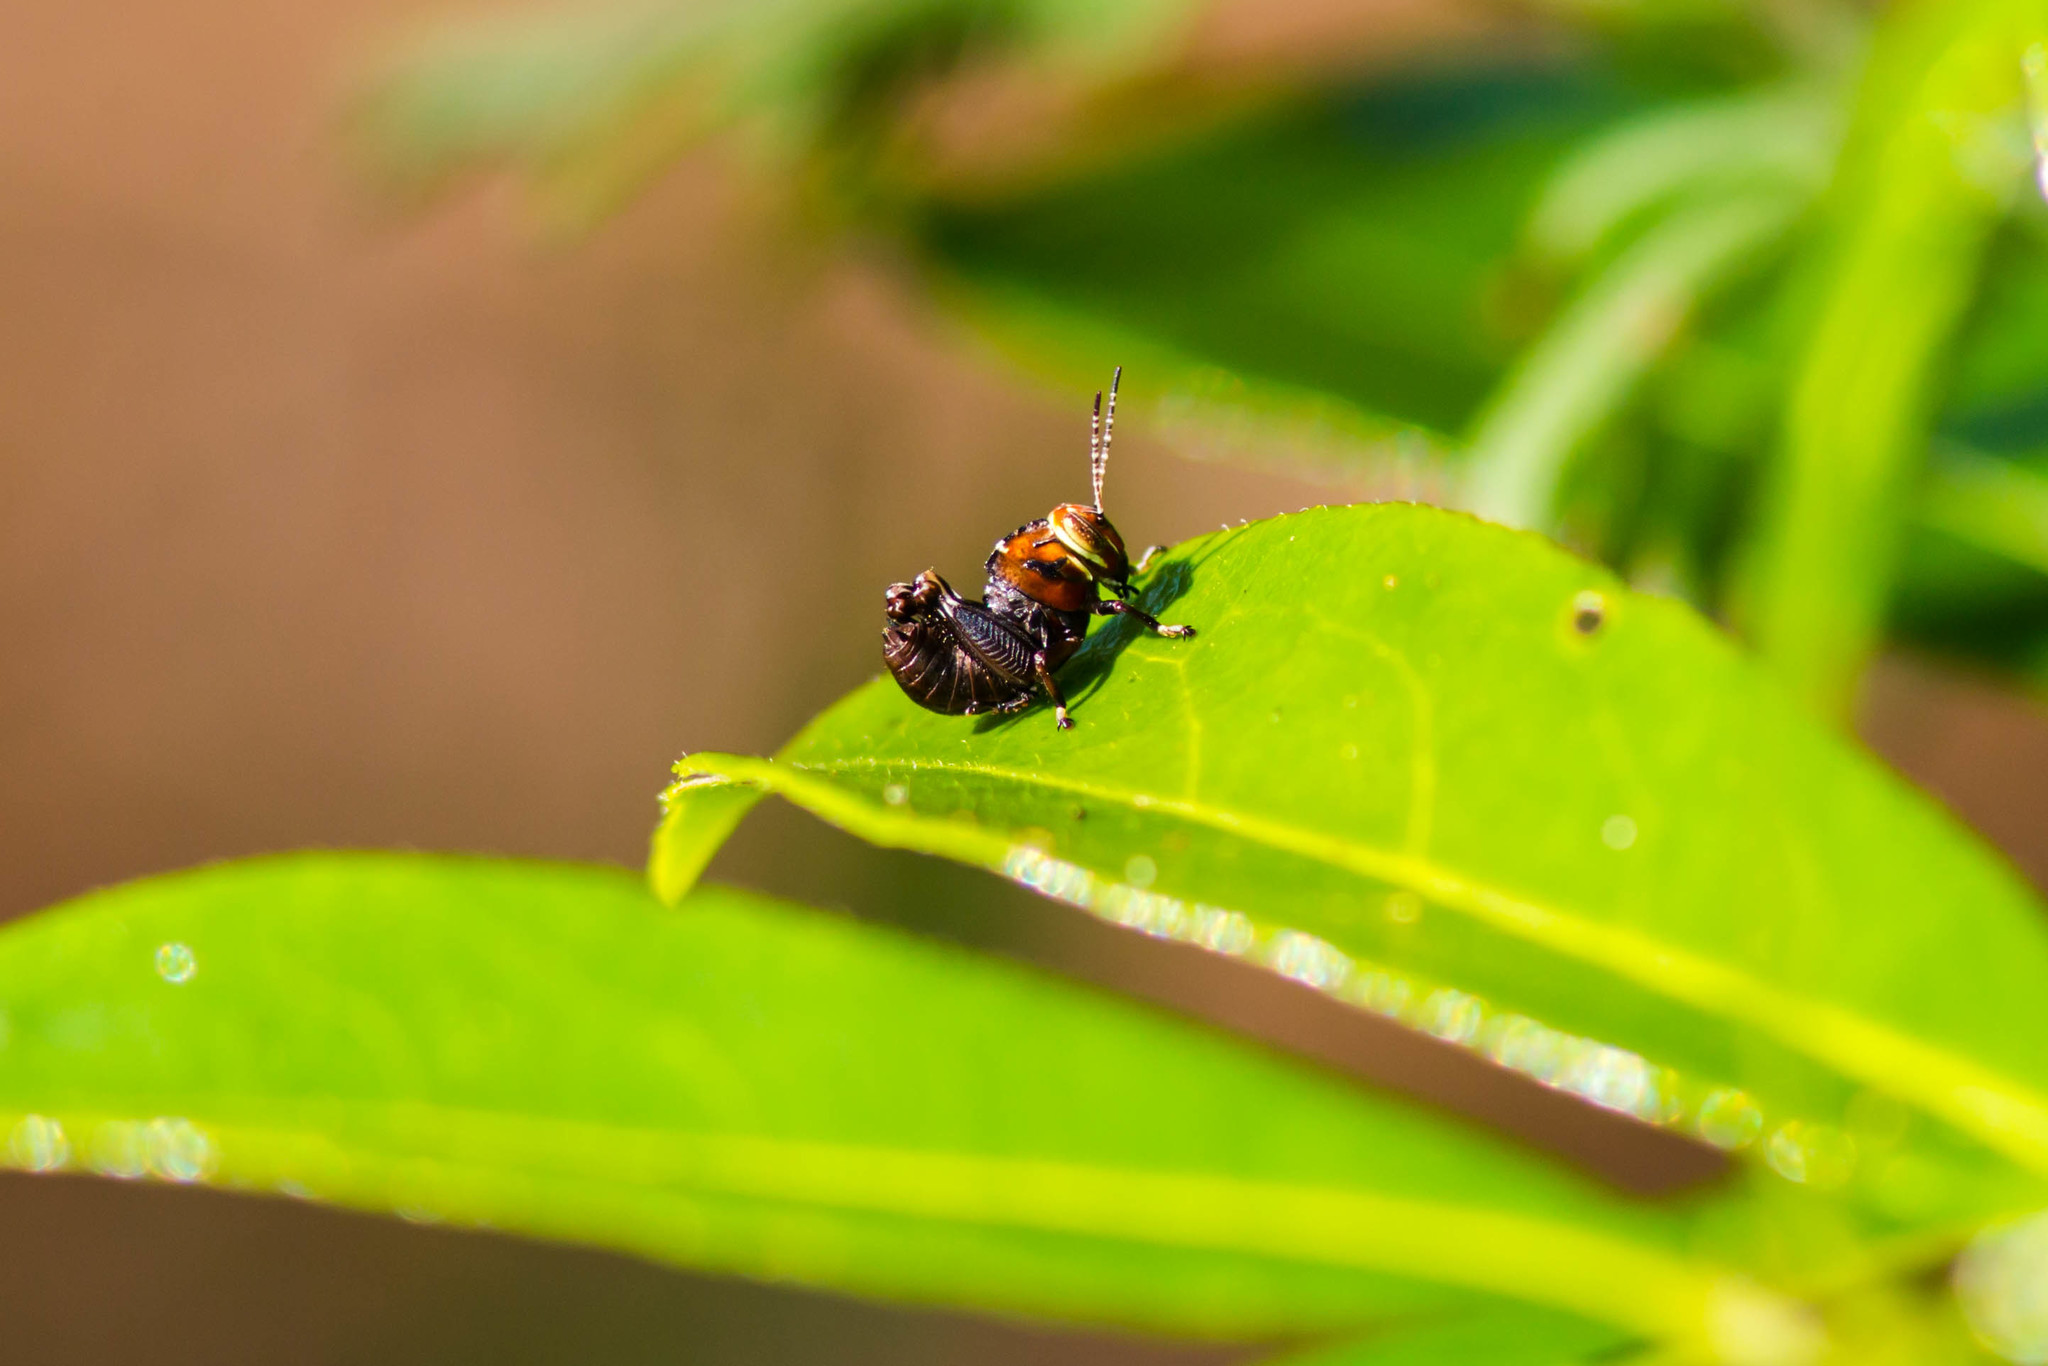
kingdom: Animalia
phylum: Arthropoda
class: Insecta
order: Orthoptera
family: Acrididae
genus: Eotettix
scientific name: Eotettix pusillus
